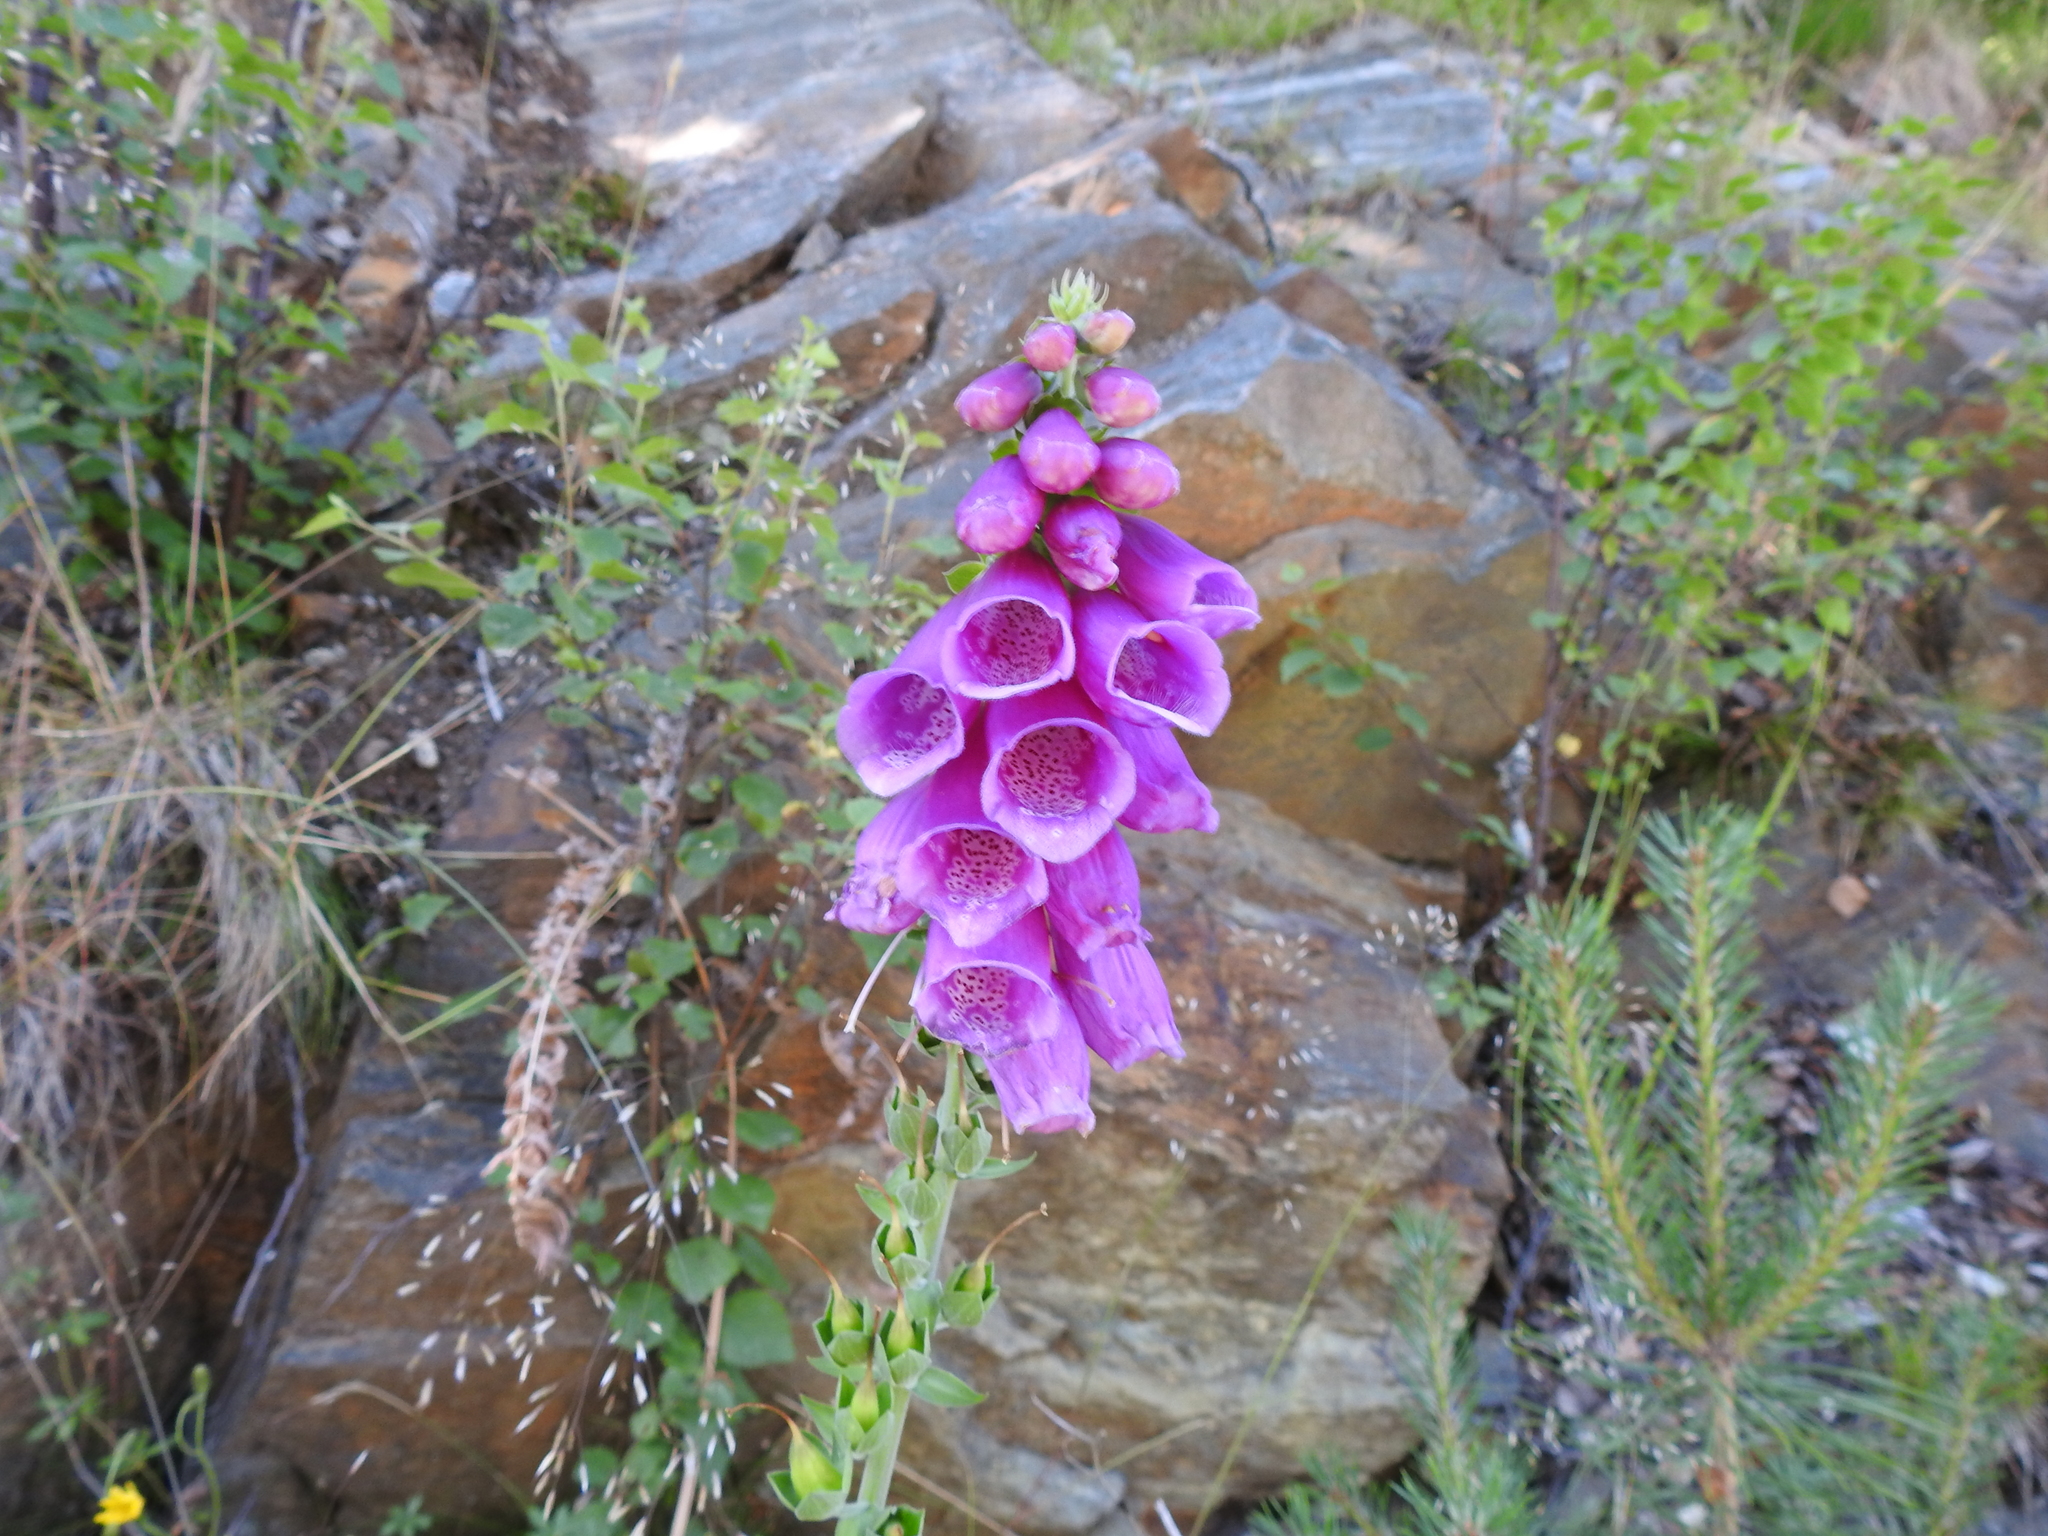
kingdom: Plantae
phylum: Tracheophyta
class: Magnoliopsida
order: Lamiales
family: Plantaginaceae
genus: Digitalis
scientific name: Digitalis purpurea
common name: Foxglove
